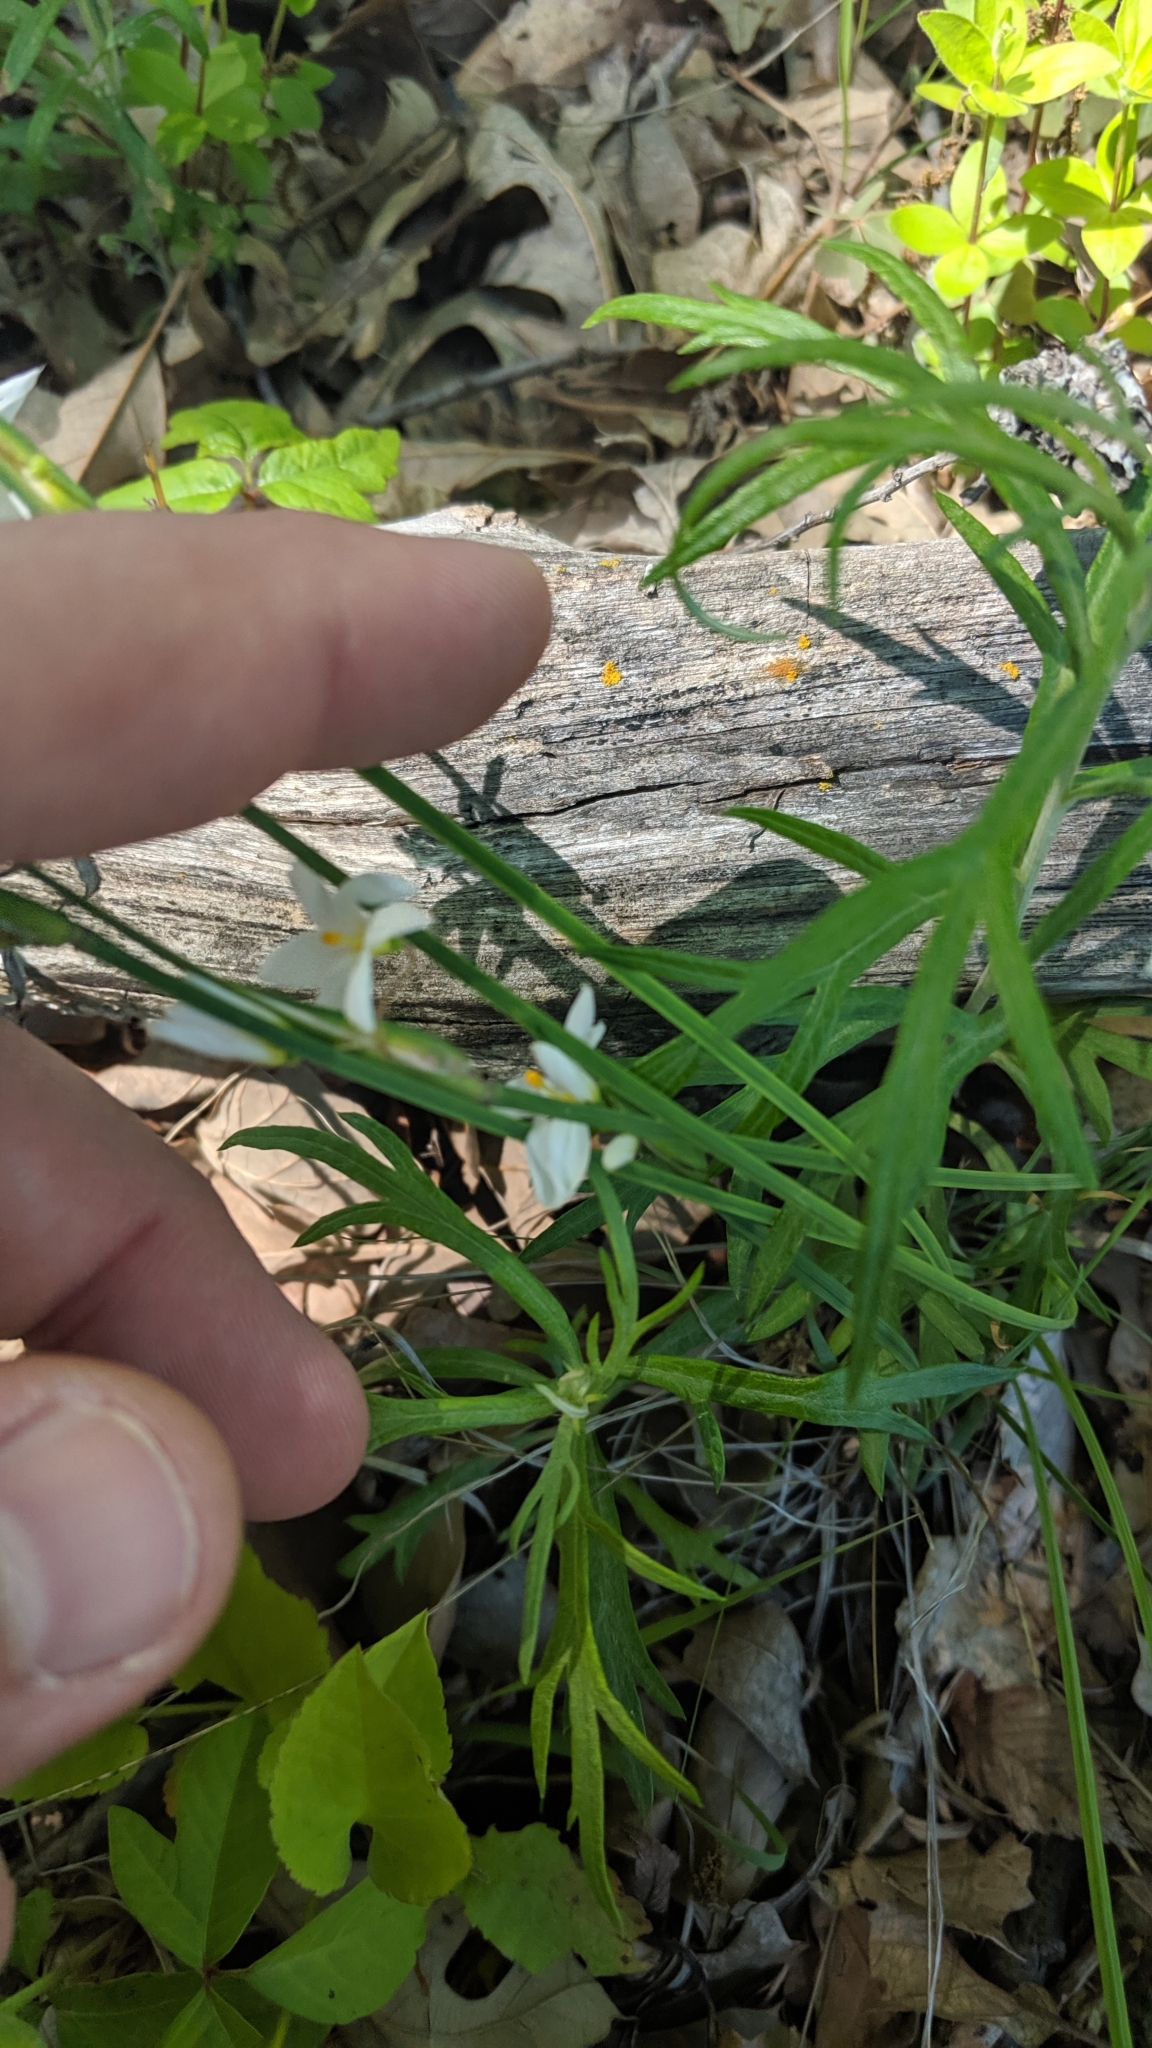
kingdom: Plantae
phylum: Tracheophyta
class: Liliopsida
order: Asparagales
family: Iridaceae
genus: Sisyrinchium
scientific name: Sisyrinchium albidum
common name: Pale blue-eyed-grass
